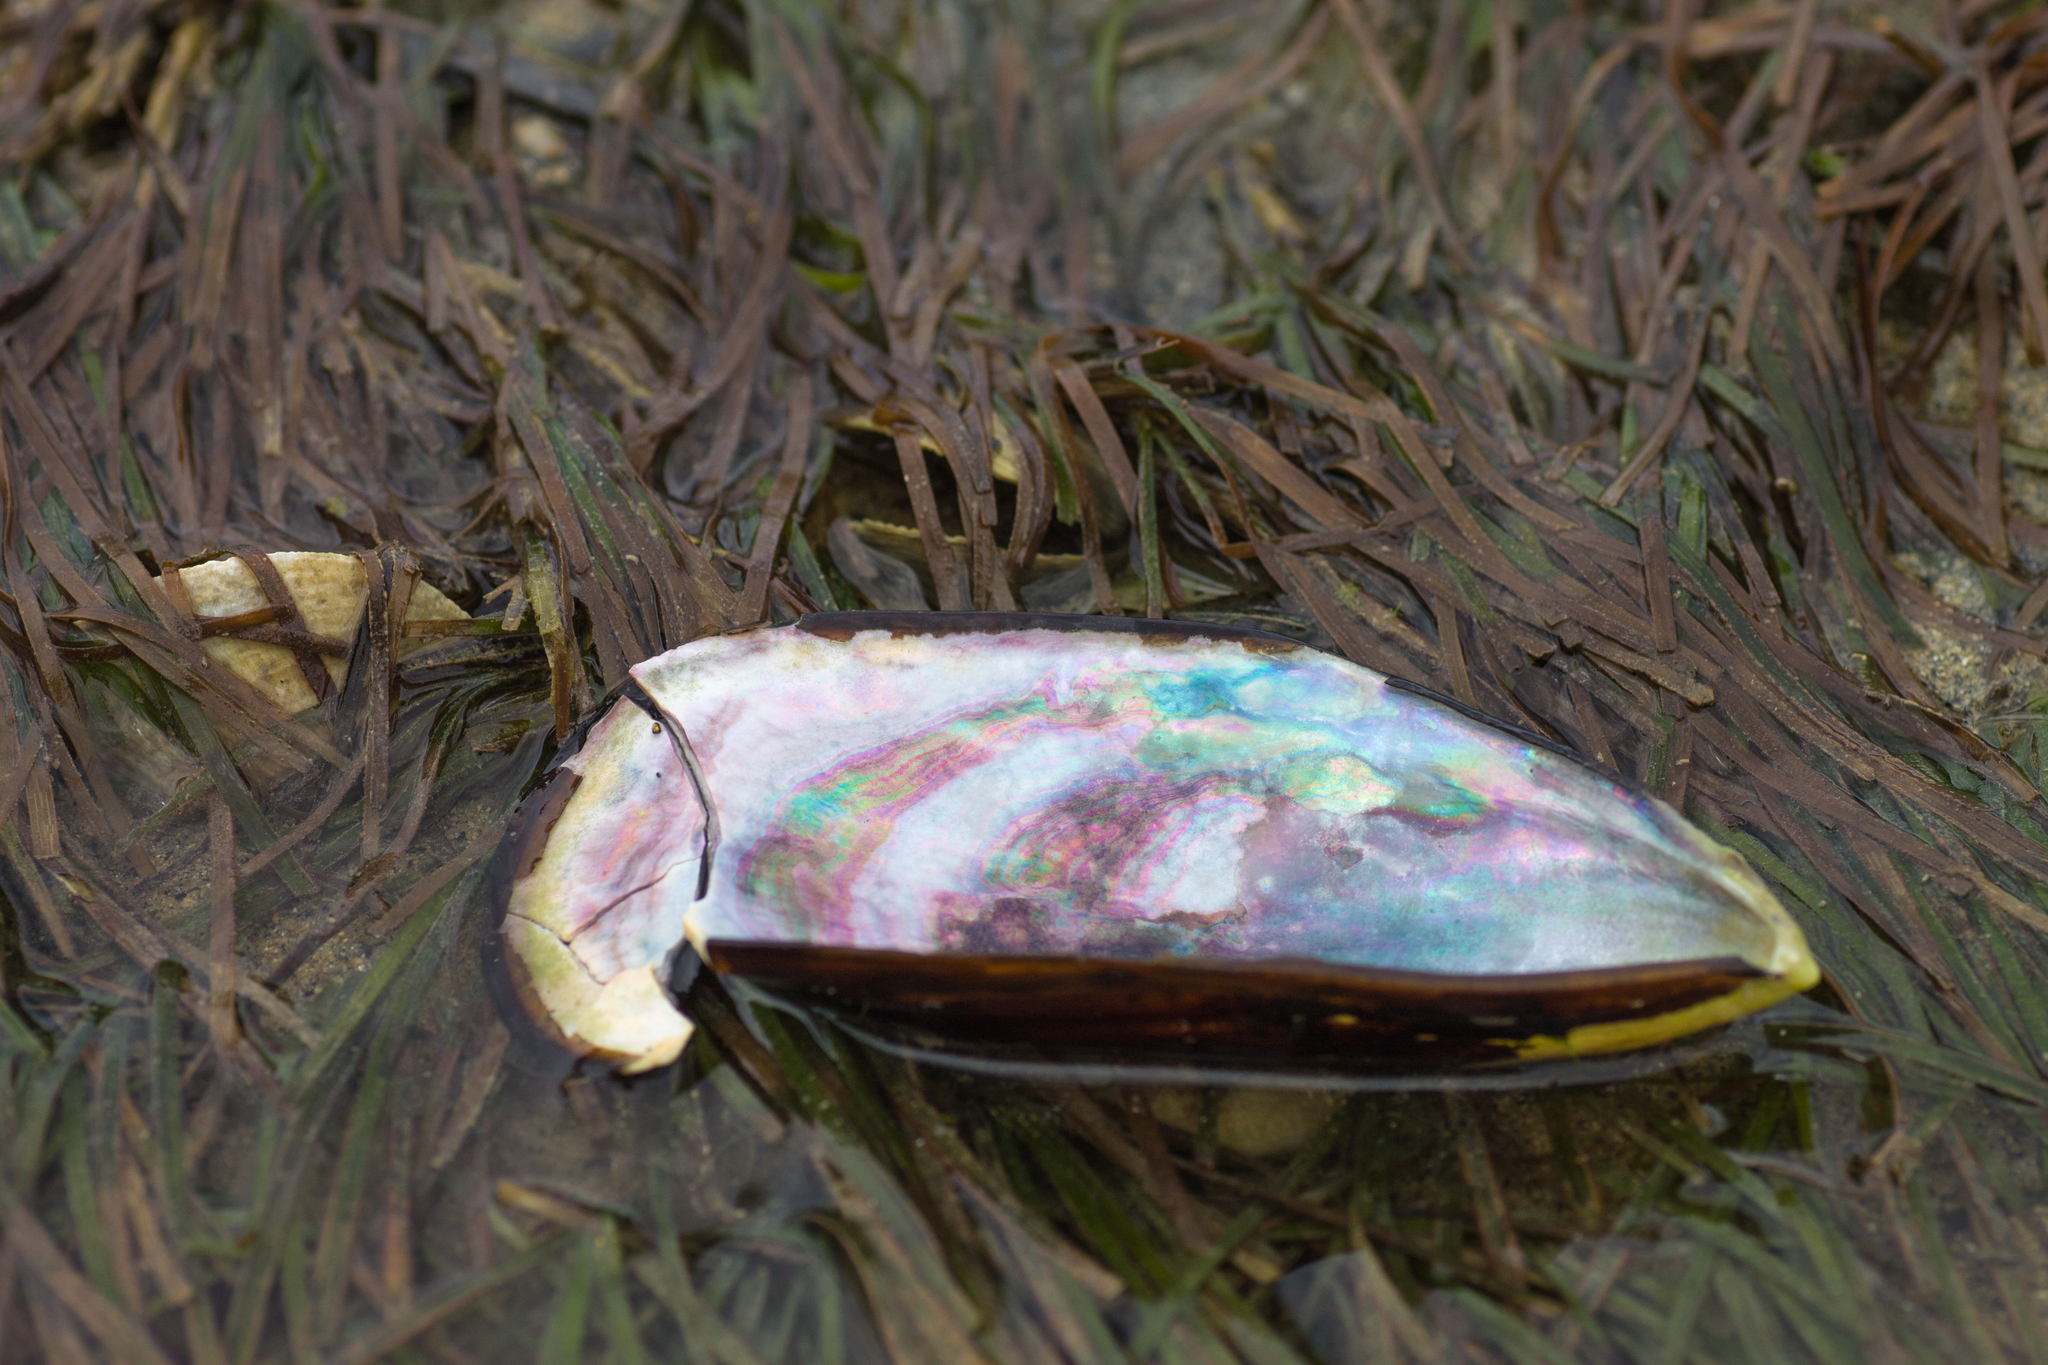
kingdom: Animalia
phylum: Mollusca
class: Bivalvia
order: Mytilida
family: Mytilidae
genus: Perna
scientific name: Perna canaliculus
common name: New zealand greenshelltm
